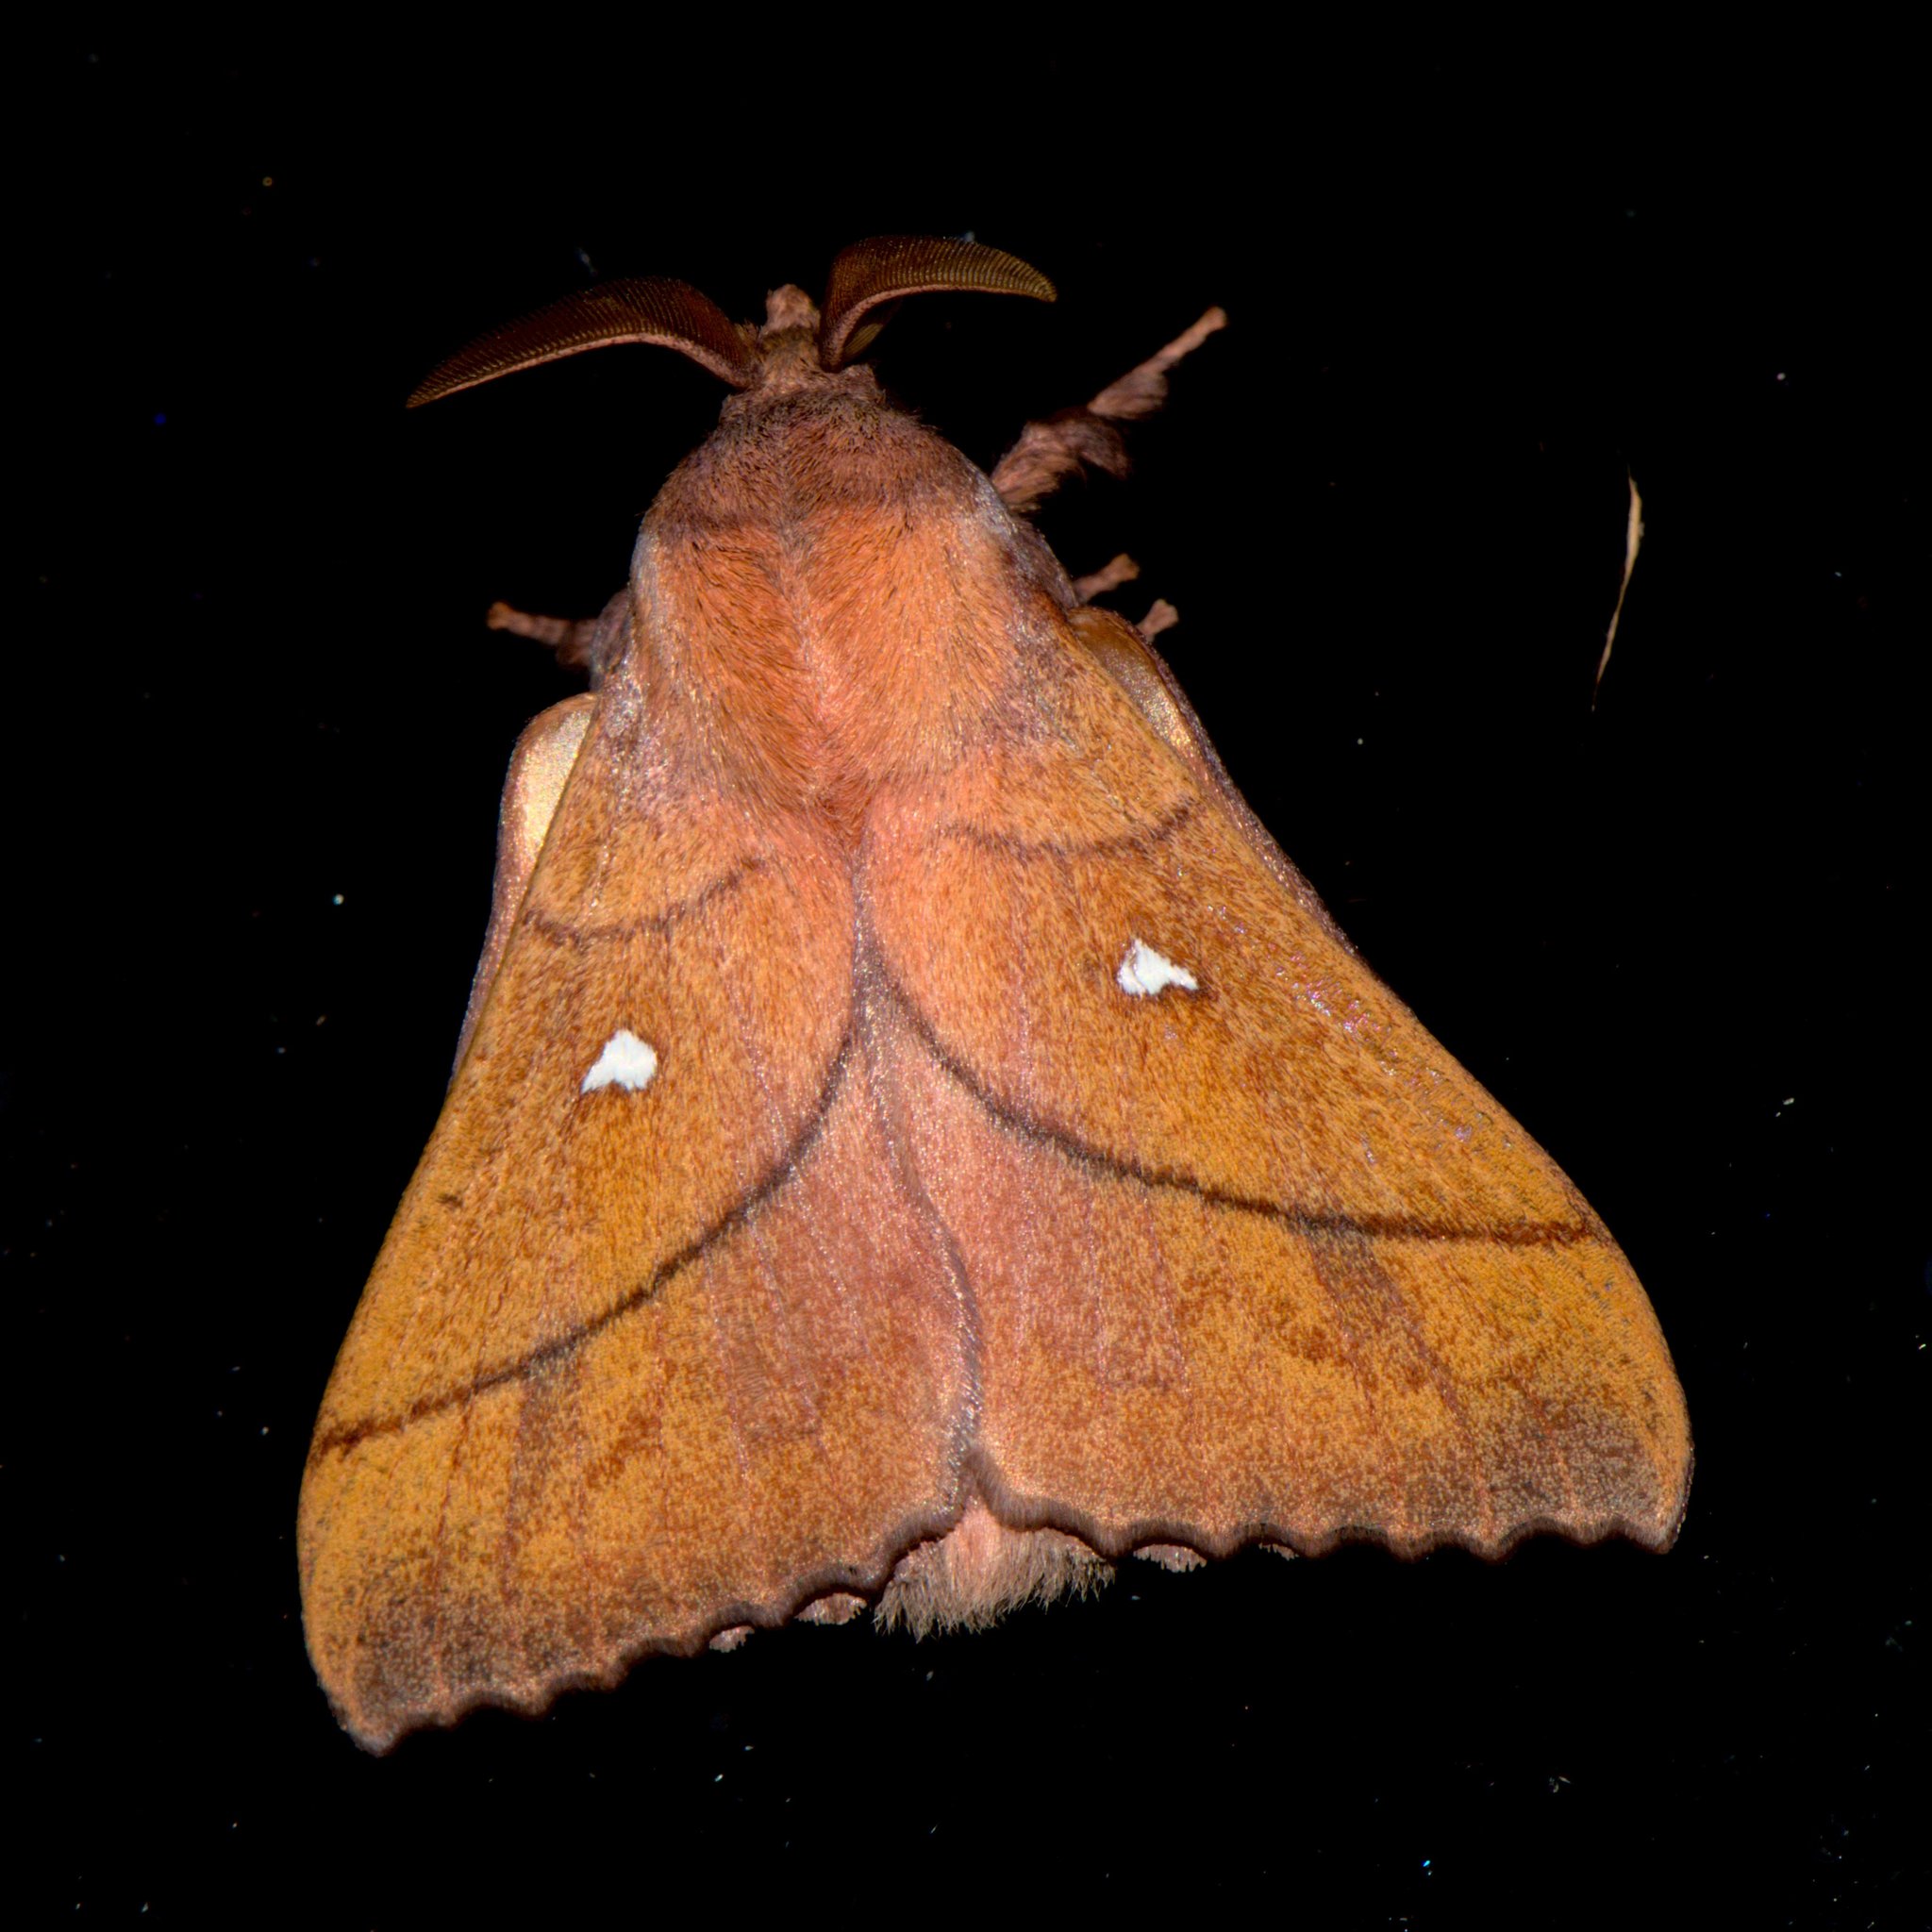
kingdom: Animalia
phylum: Arthropoda
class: Insecta
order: Lepidoptera
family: Lasiocampidae
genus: Odonestis
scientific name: Odonestis pruni
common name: Plum lappet
